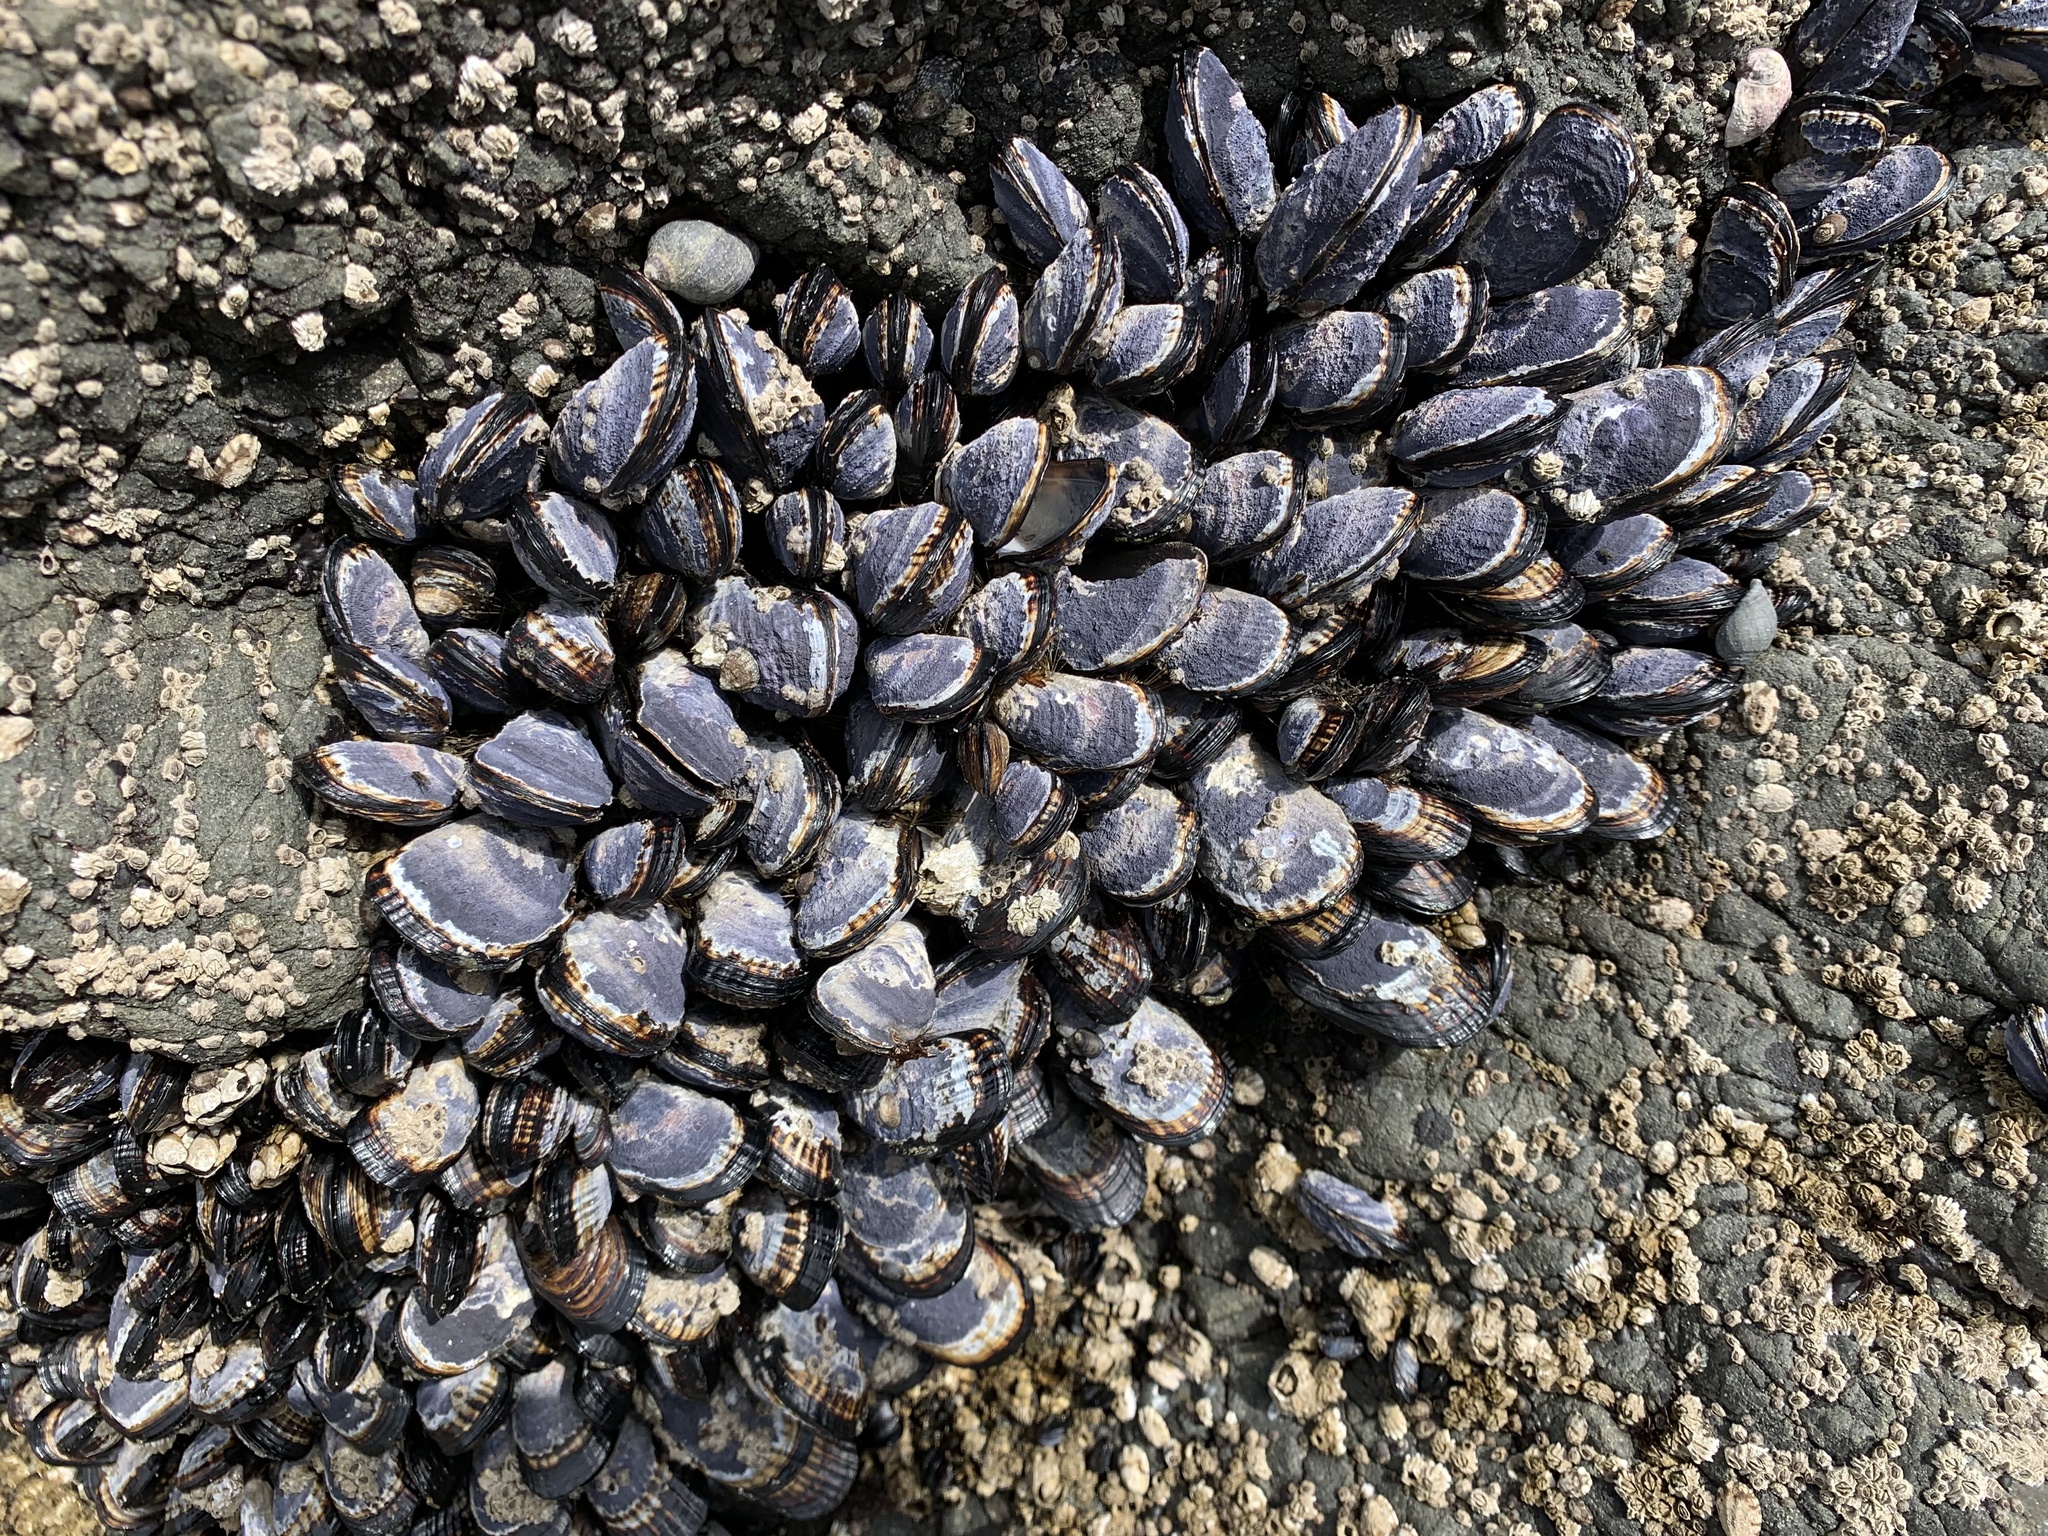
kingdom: Animalia
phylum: Mollusca
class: Bivalvia
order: Mytilida
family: Mytilidae
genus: Mytilus
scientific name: Mytilus californianus
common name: California mussel
